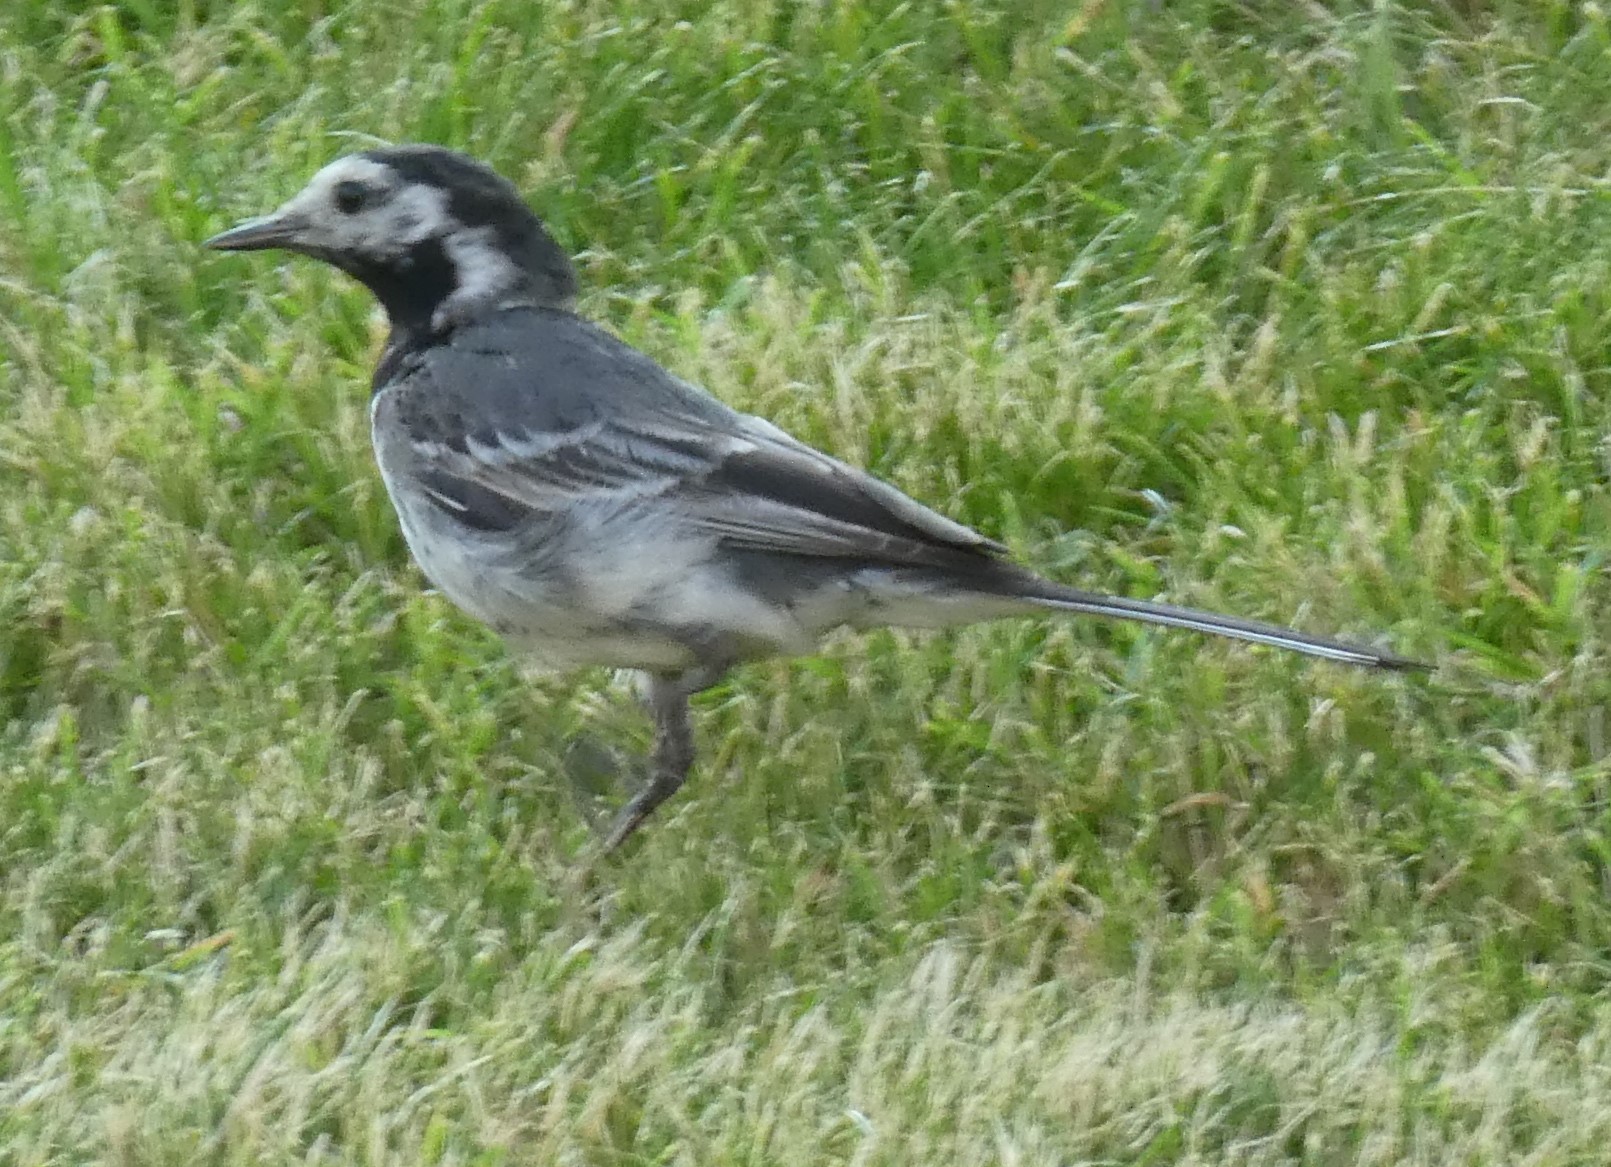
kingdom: Animalia
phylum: Chordata
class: Aves
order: Passeriformes
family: Motacillidae
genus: Motacilla
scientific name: Motacilla alba
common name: White wagtail
